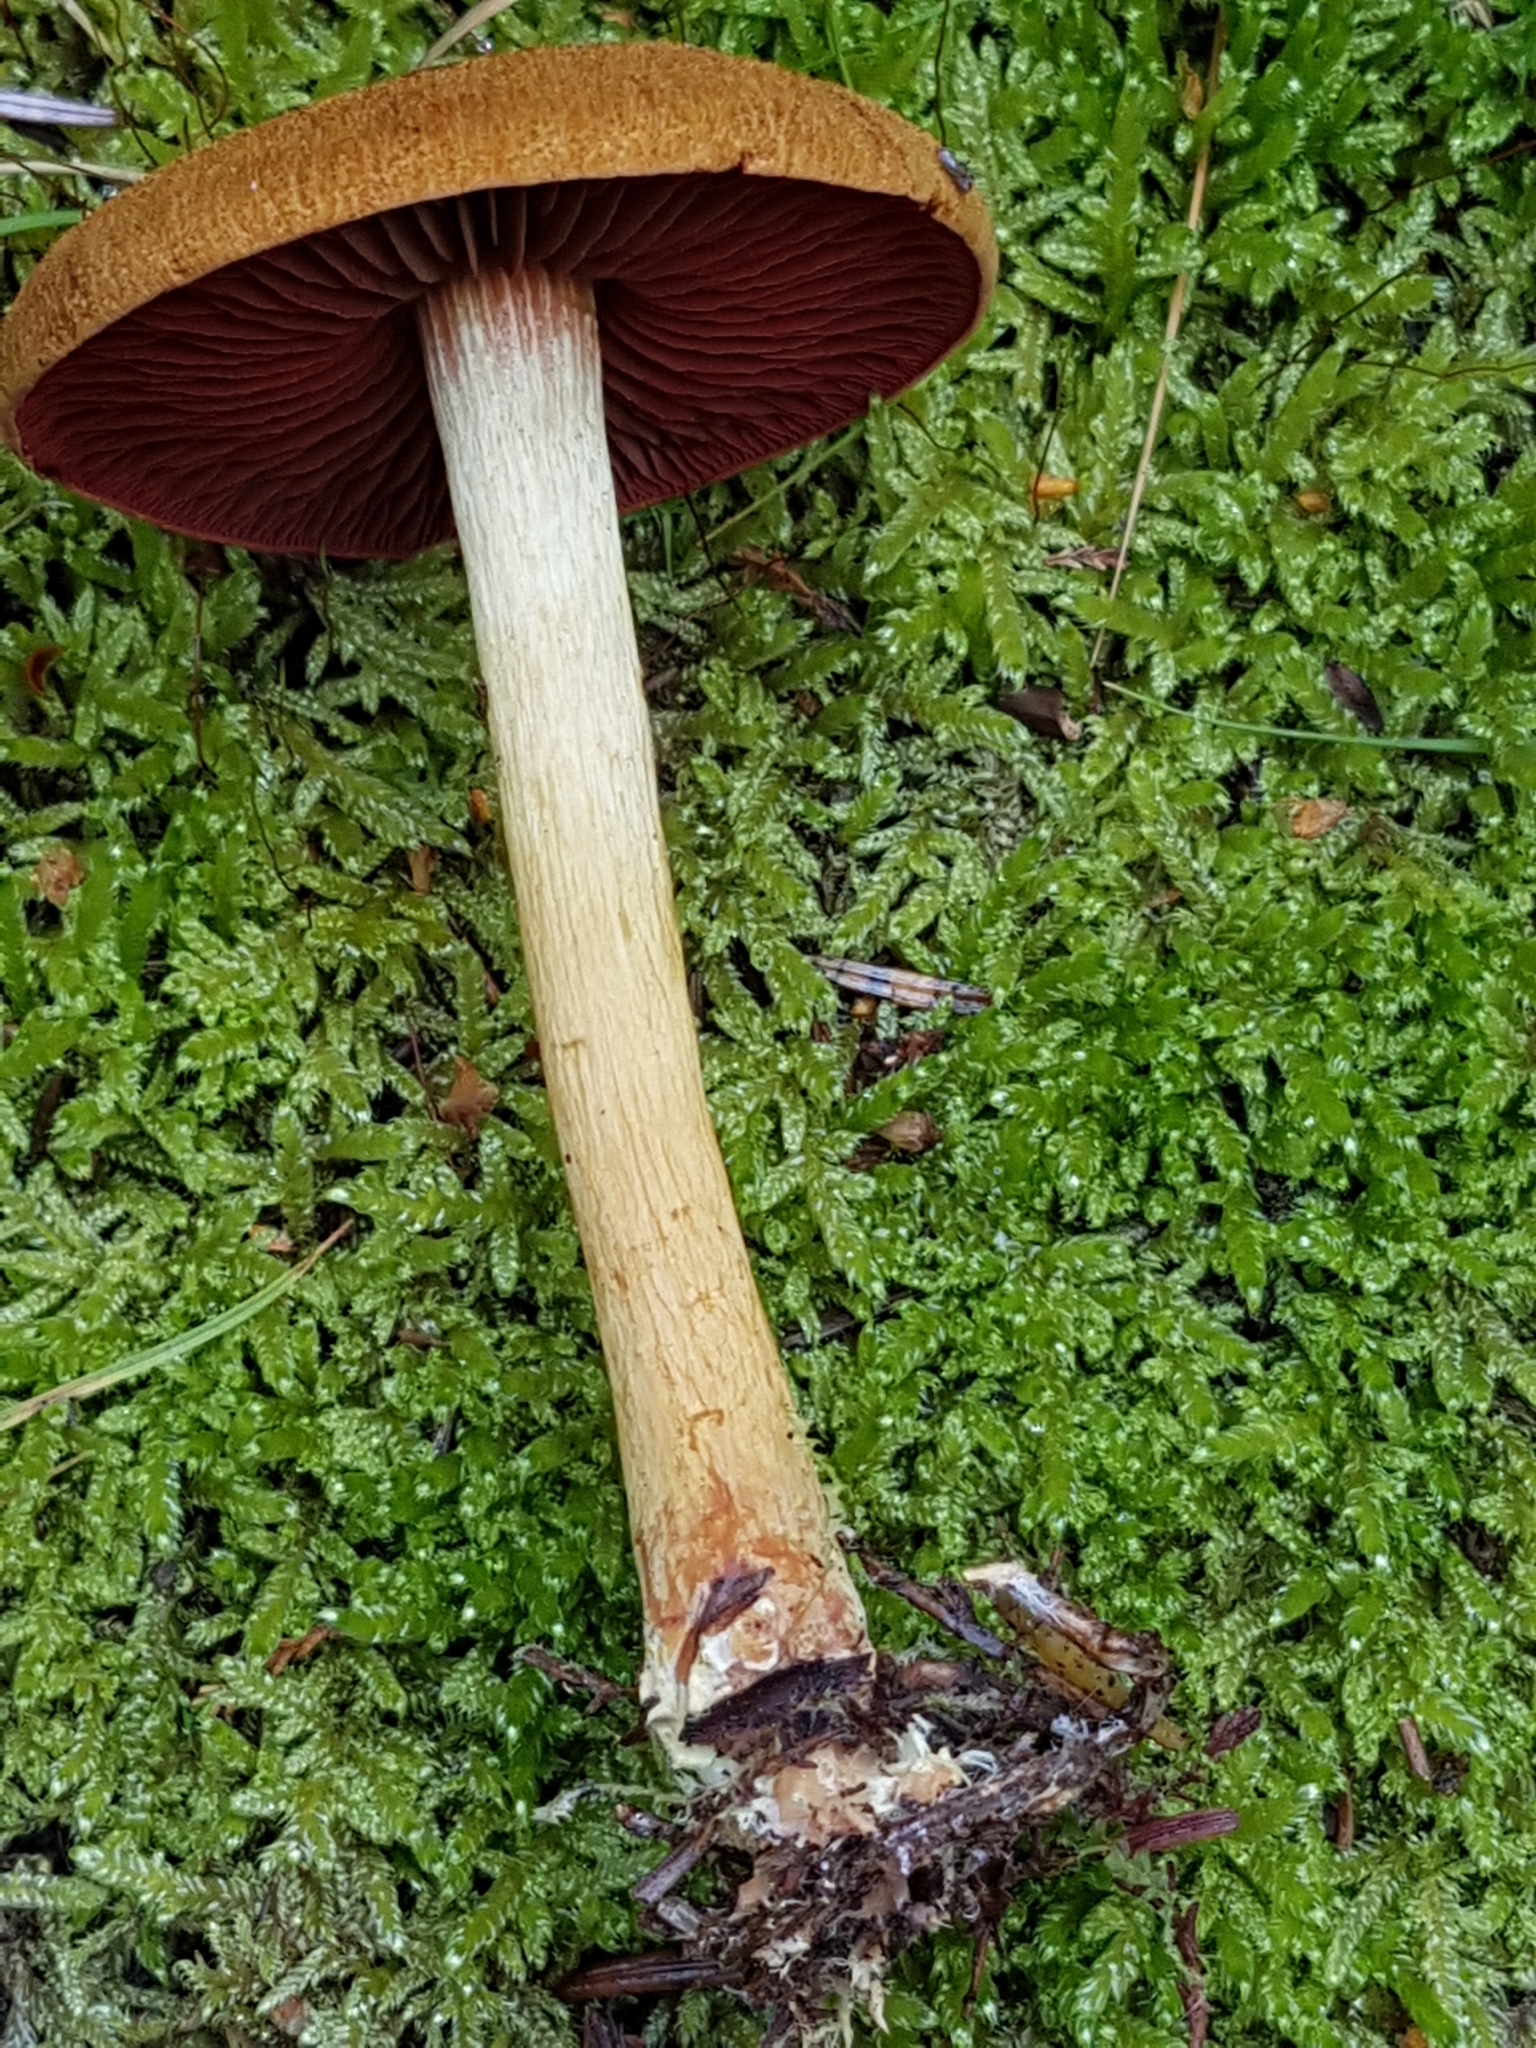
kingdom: Fungi
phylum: Basidiomycota
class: Agaricomycetes
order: Agaricales
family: Cortinariaceae
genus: Cortinarius
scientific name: Cortinarius semisanguineus
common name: Surprise webcap
